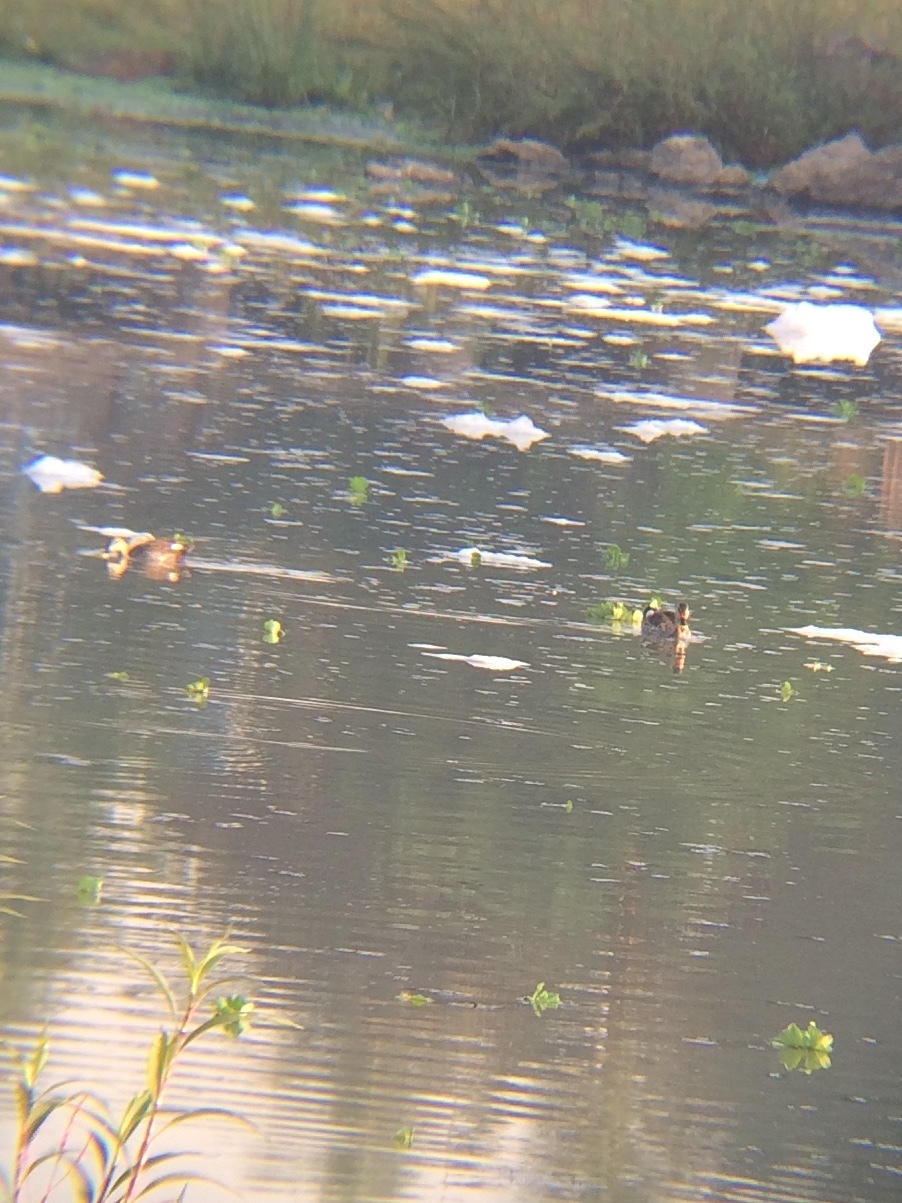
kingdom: Animalia
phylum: Chordata
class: Aves
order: Anseriformes
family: Anatidae
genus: Anas
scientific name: Anas poecilorhyncha
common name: Indian spot-billed duck
